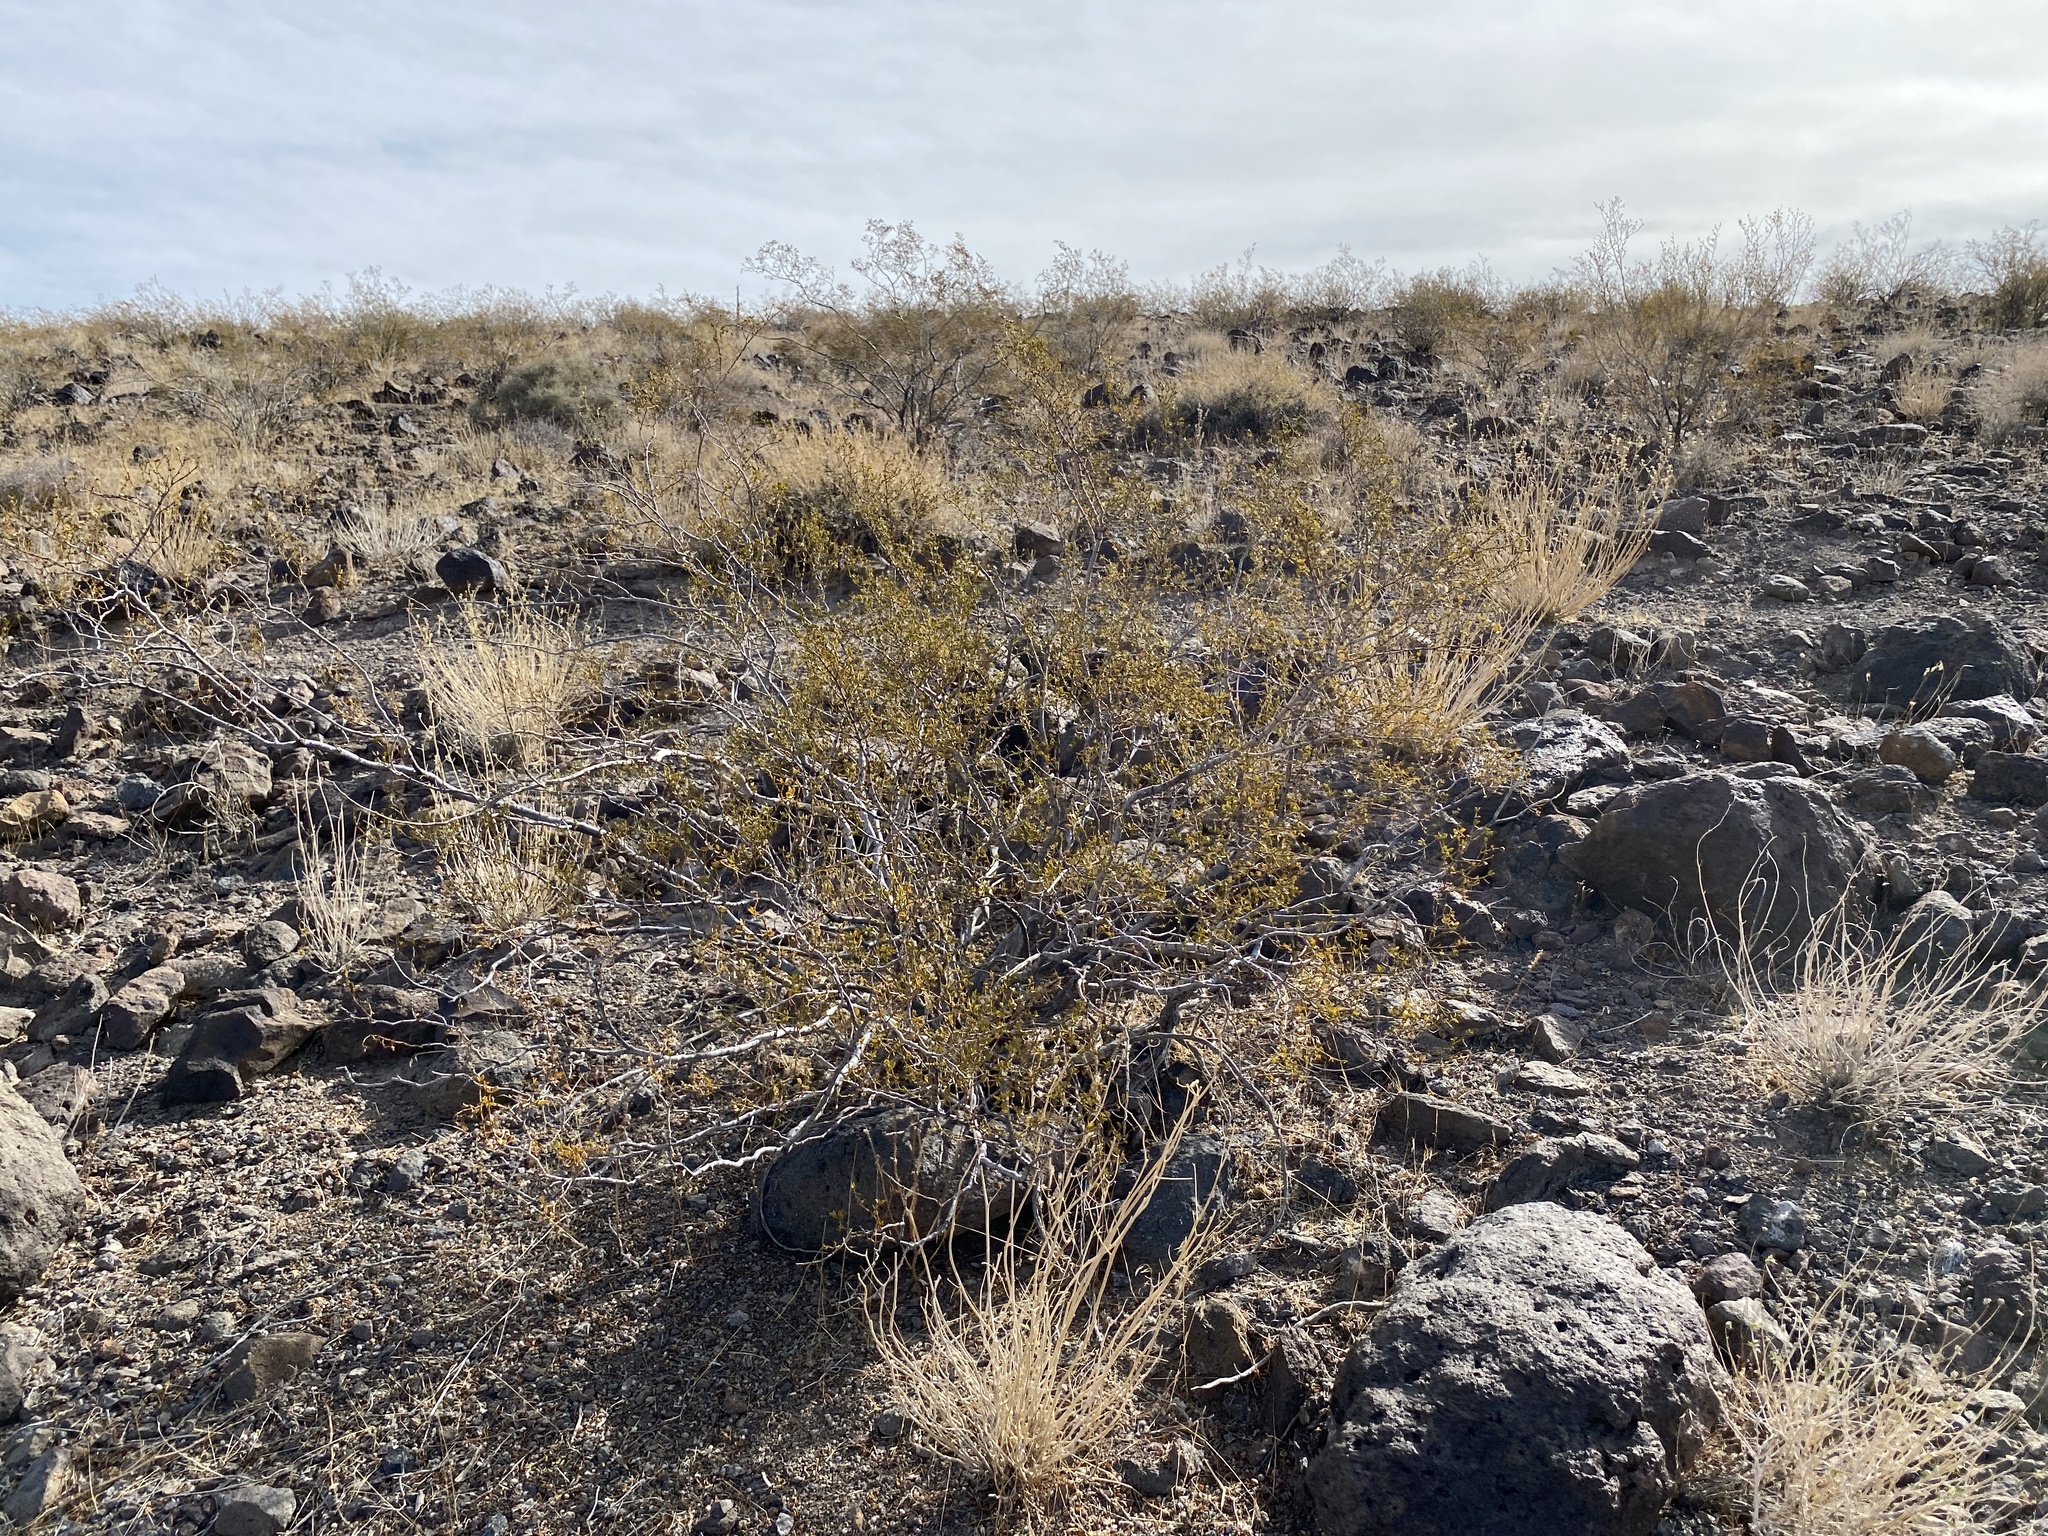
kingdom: Plantae
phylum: Tracheophyta
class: Magnoliopsida
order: Zygophyllales
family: Zygophyllaceae
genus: Larrea
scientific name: Larrea tridentata
